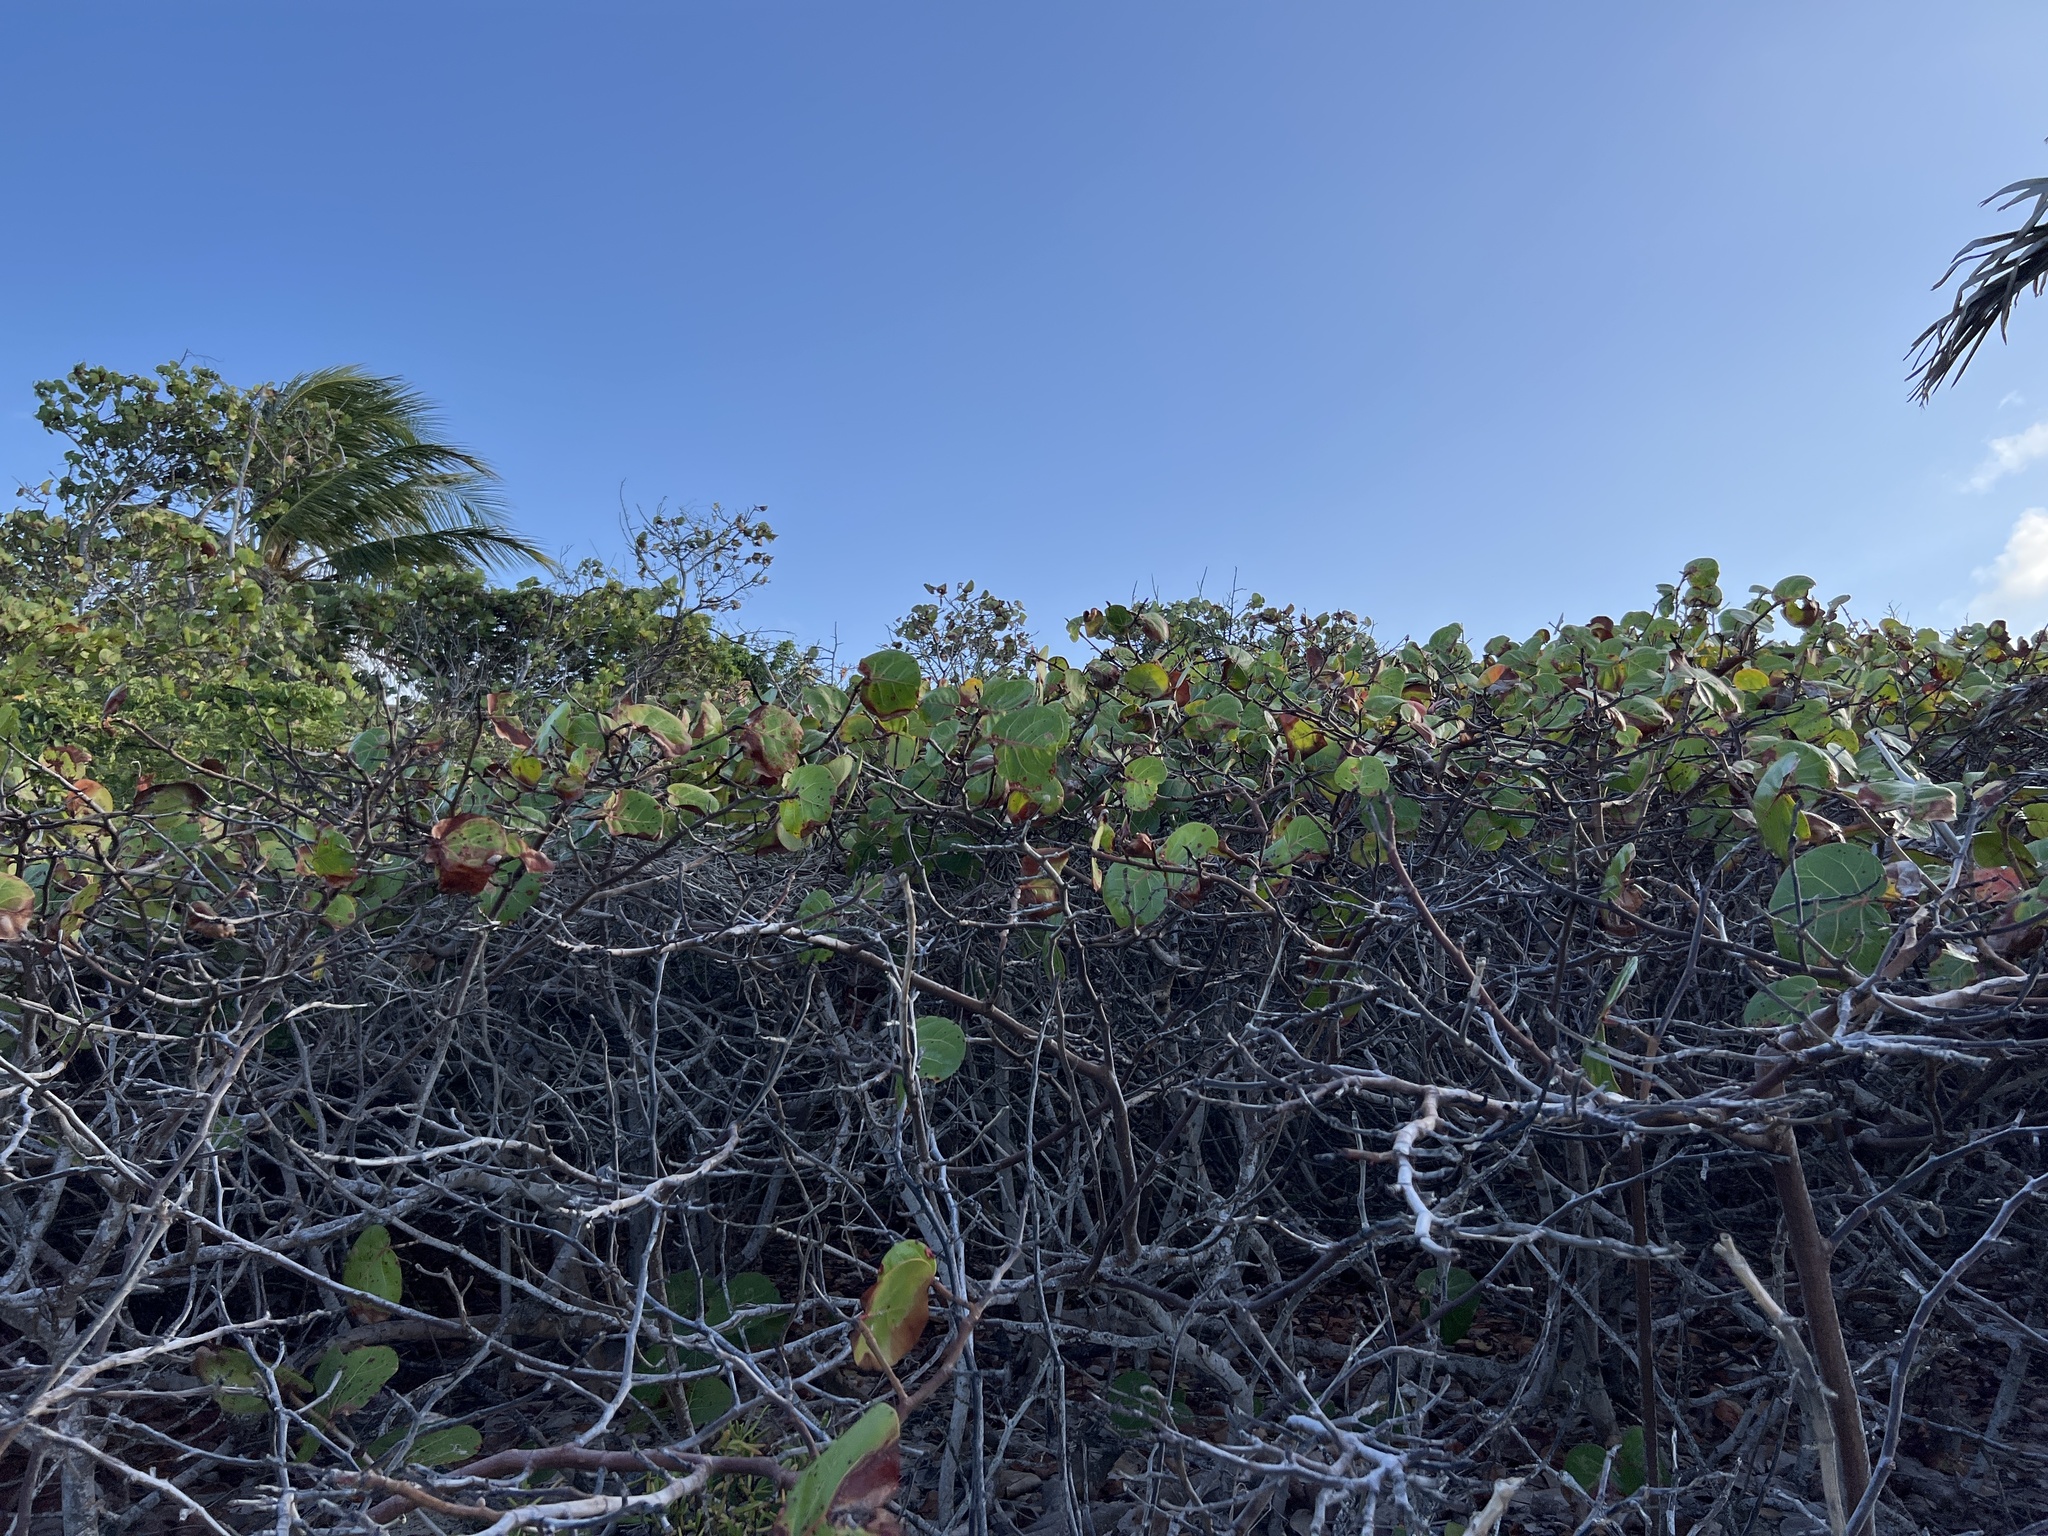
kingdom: Plantae
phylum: Tracheophyta
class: Magnoliopsida
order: Caryophyllales
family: Polygonaceae
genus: Coccoloba
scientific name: Coccoloba uvifera
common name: Seagrape
